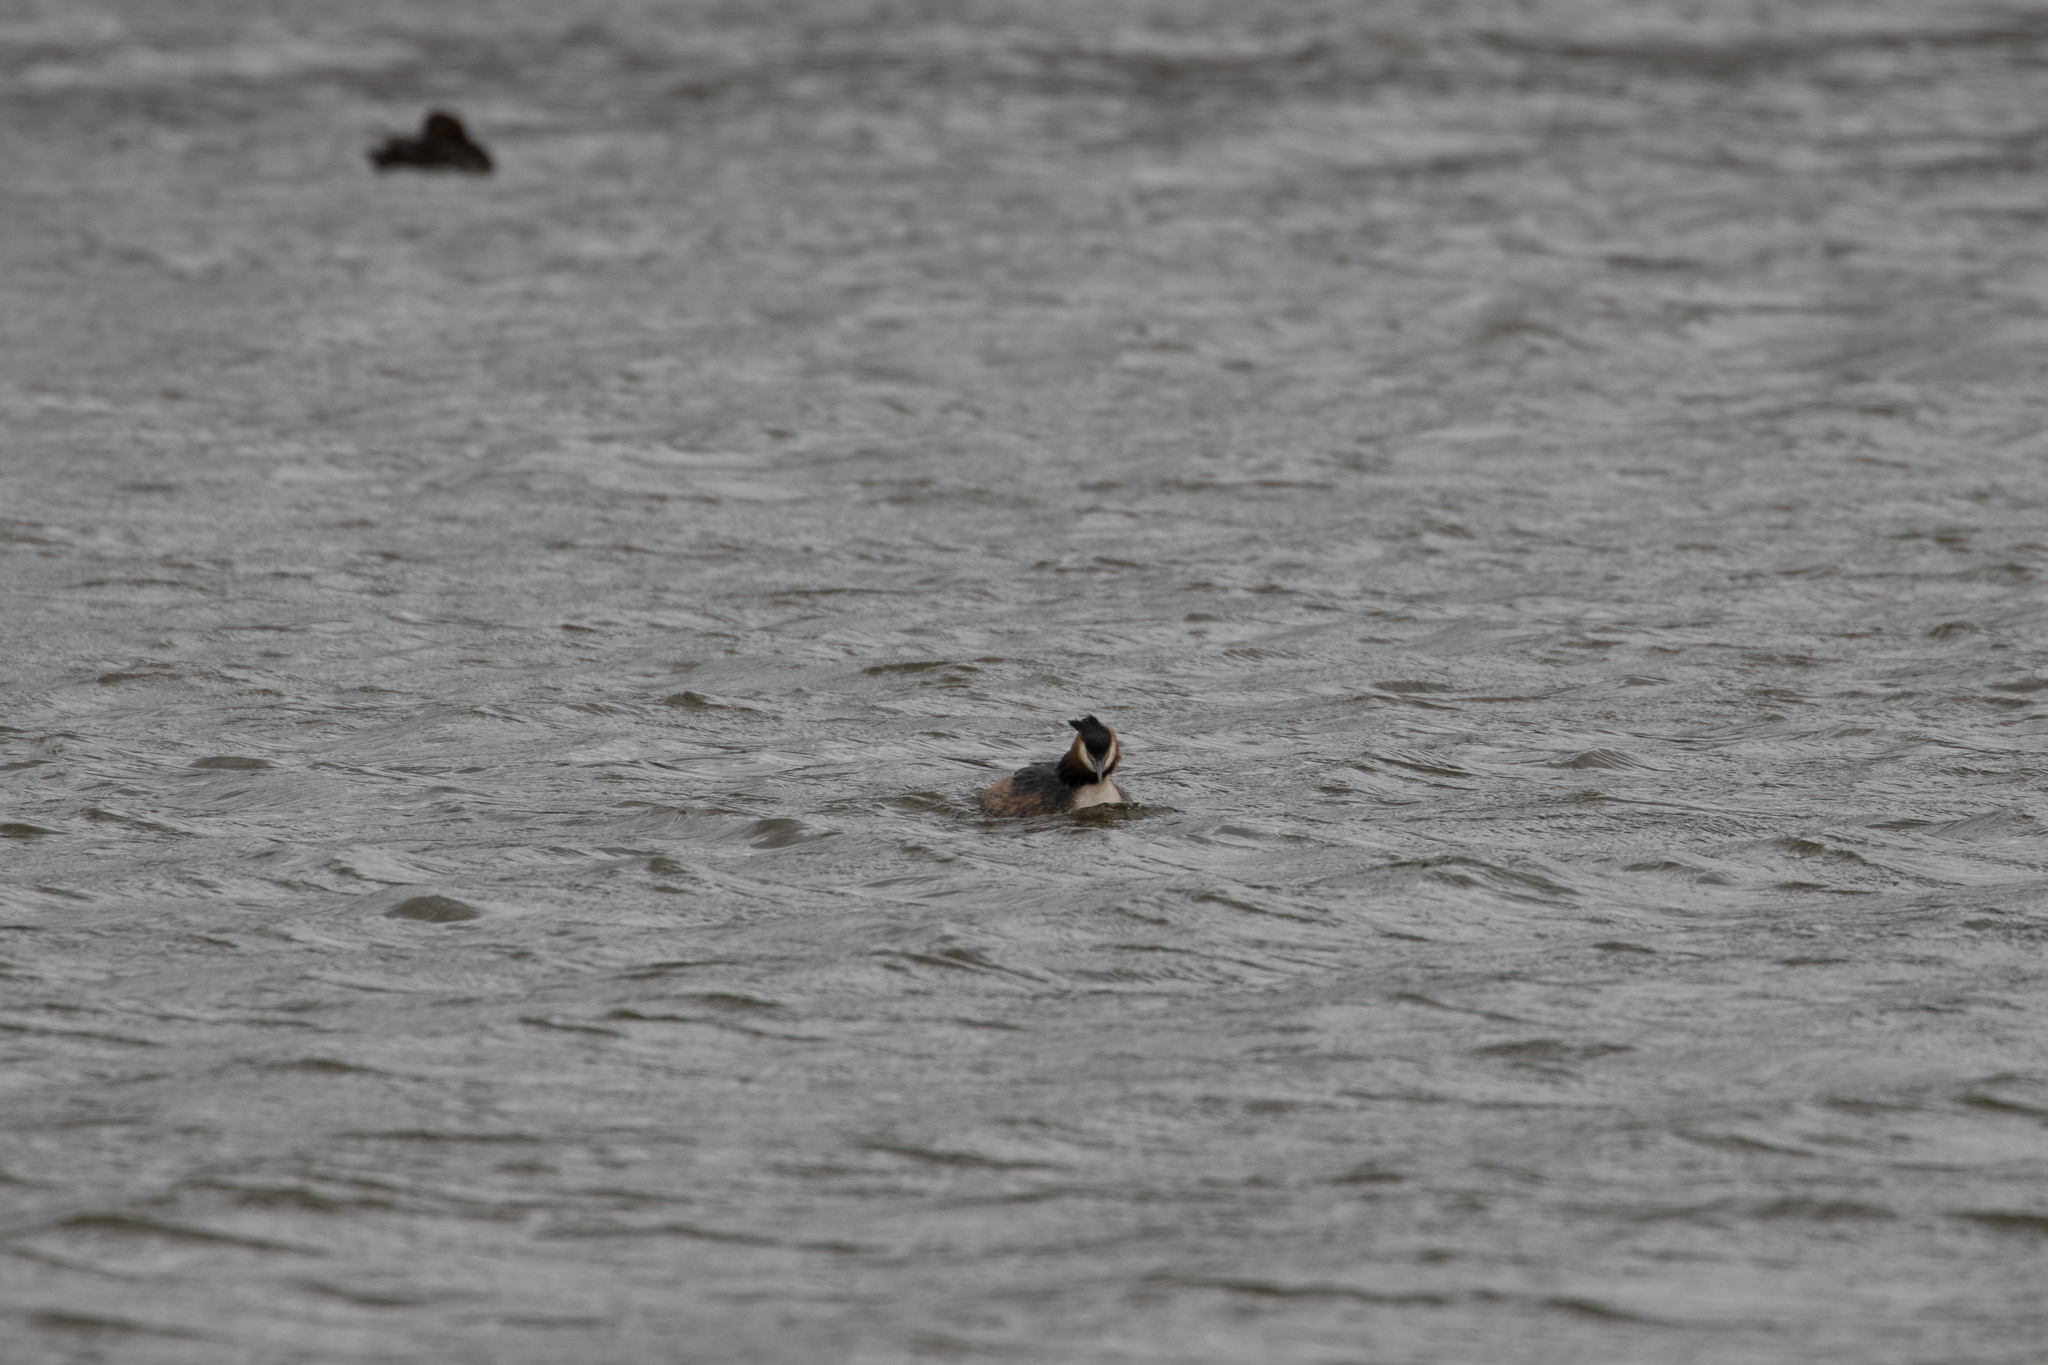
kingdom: Animalia
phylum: Chordata
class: Aves
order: Podicipediformes
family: Podicipedidae
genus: Podiceps
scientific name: Podiceps cristatus
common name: Great crested grebe
